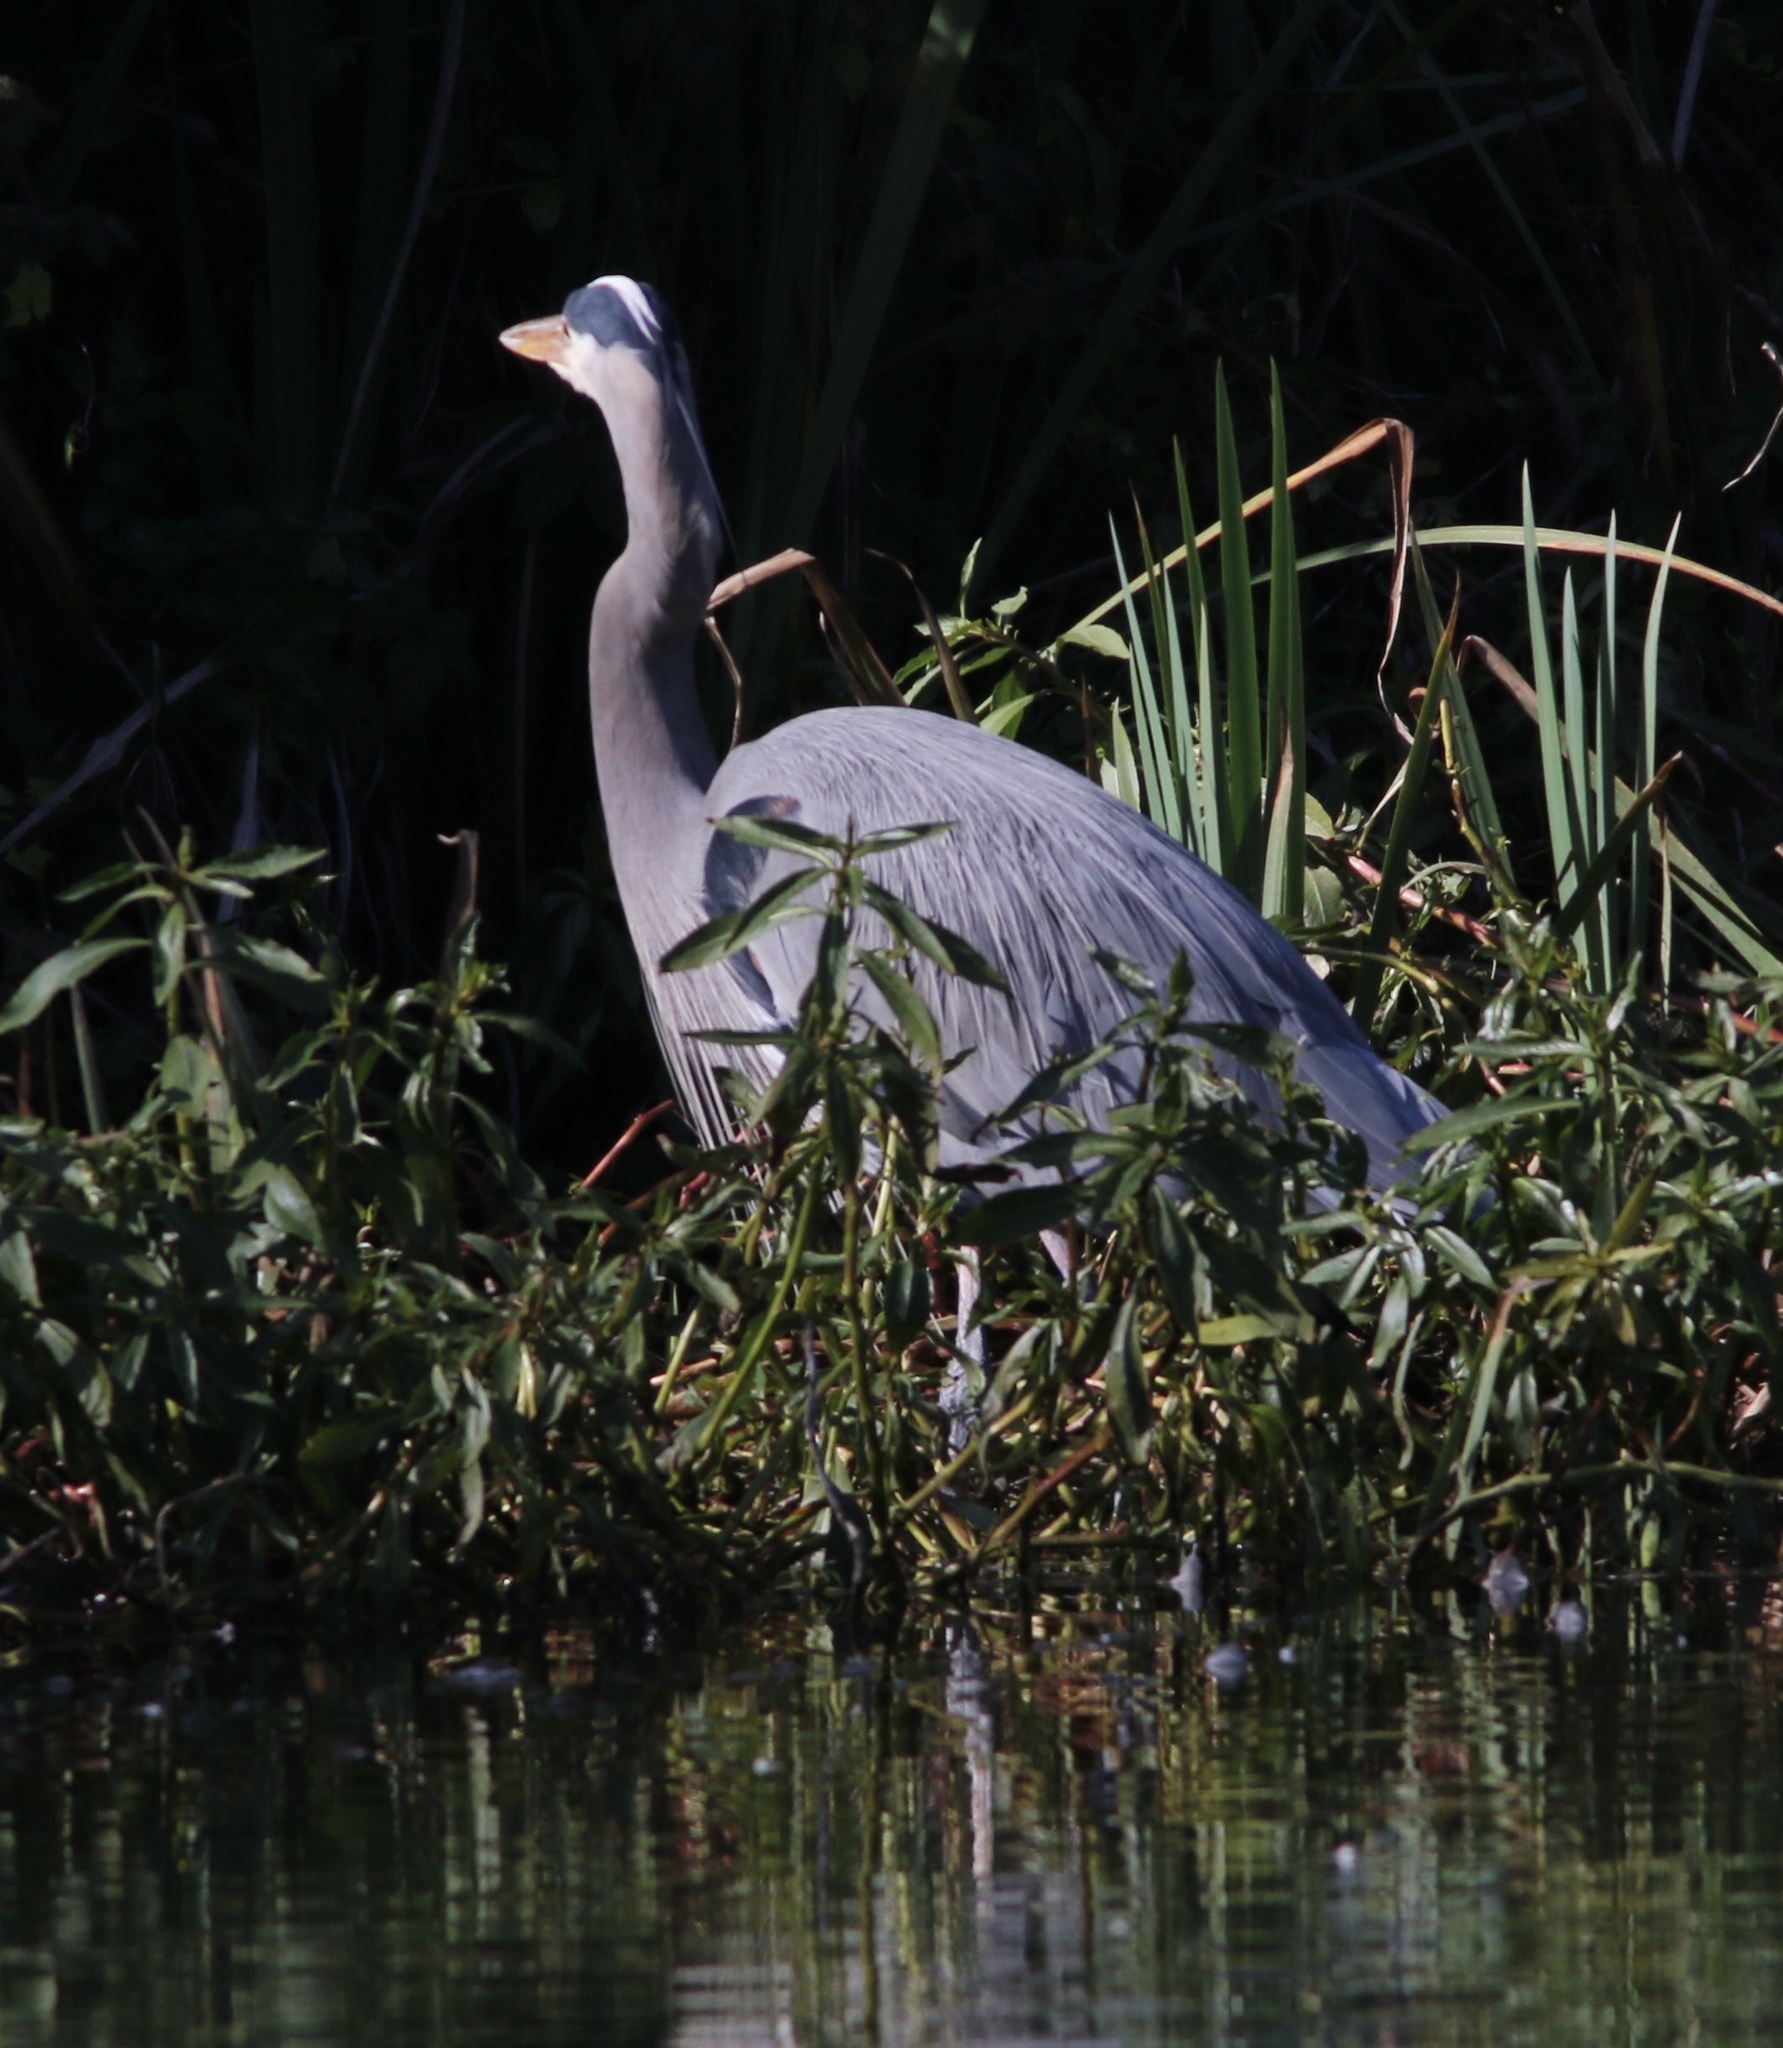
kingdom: Animalia
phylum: Chordata
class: Aves
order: Pelecaniformes
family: Ardeidae
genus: Ardea
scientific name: Ardea herodias
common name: Great blue heron
